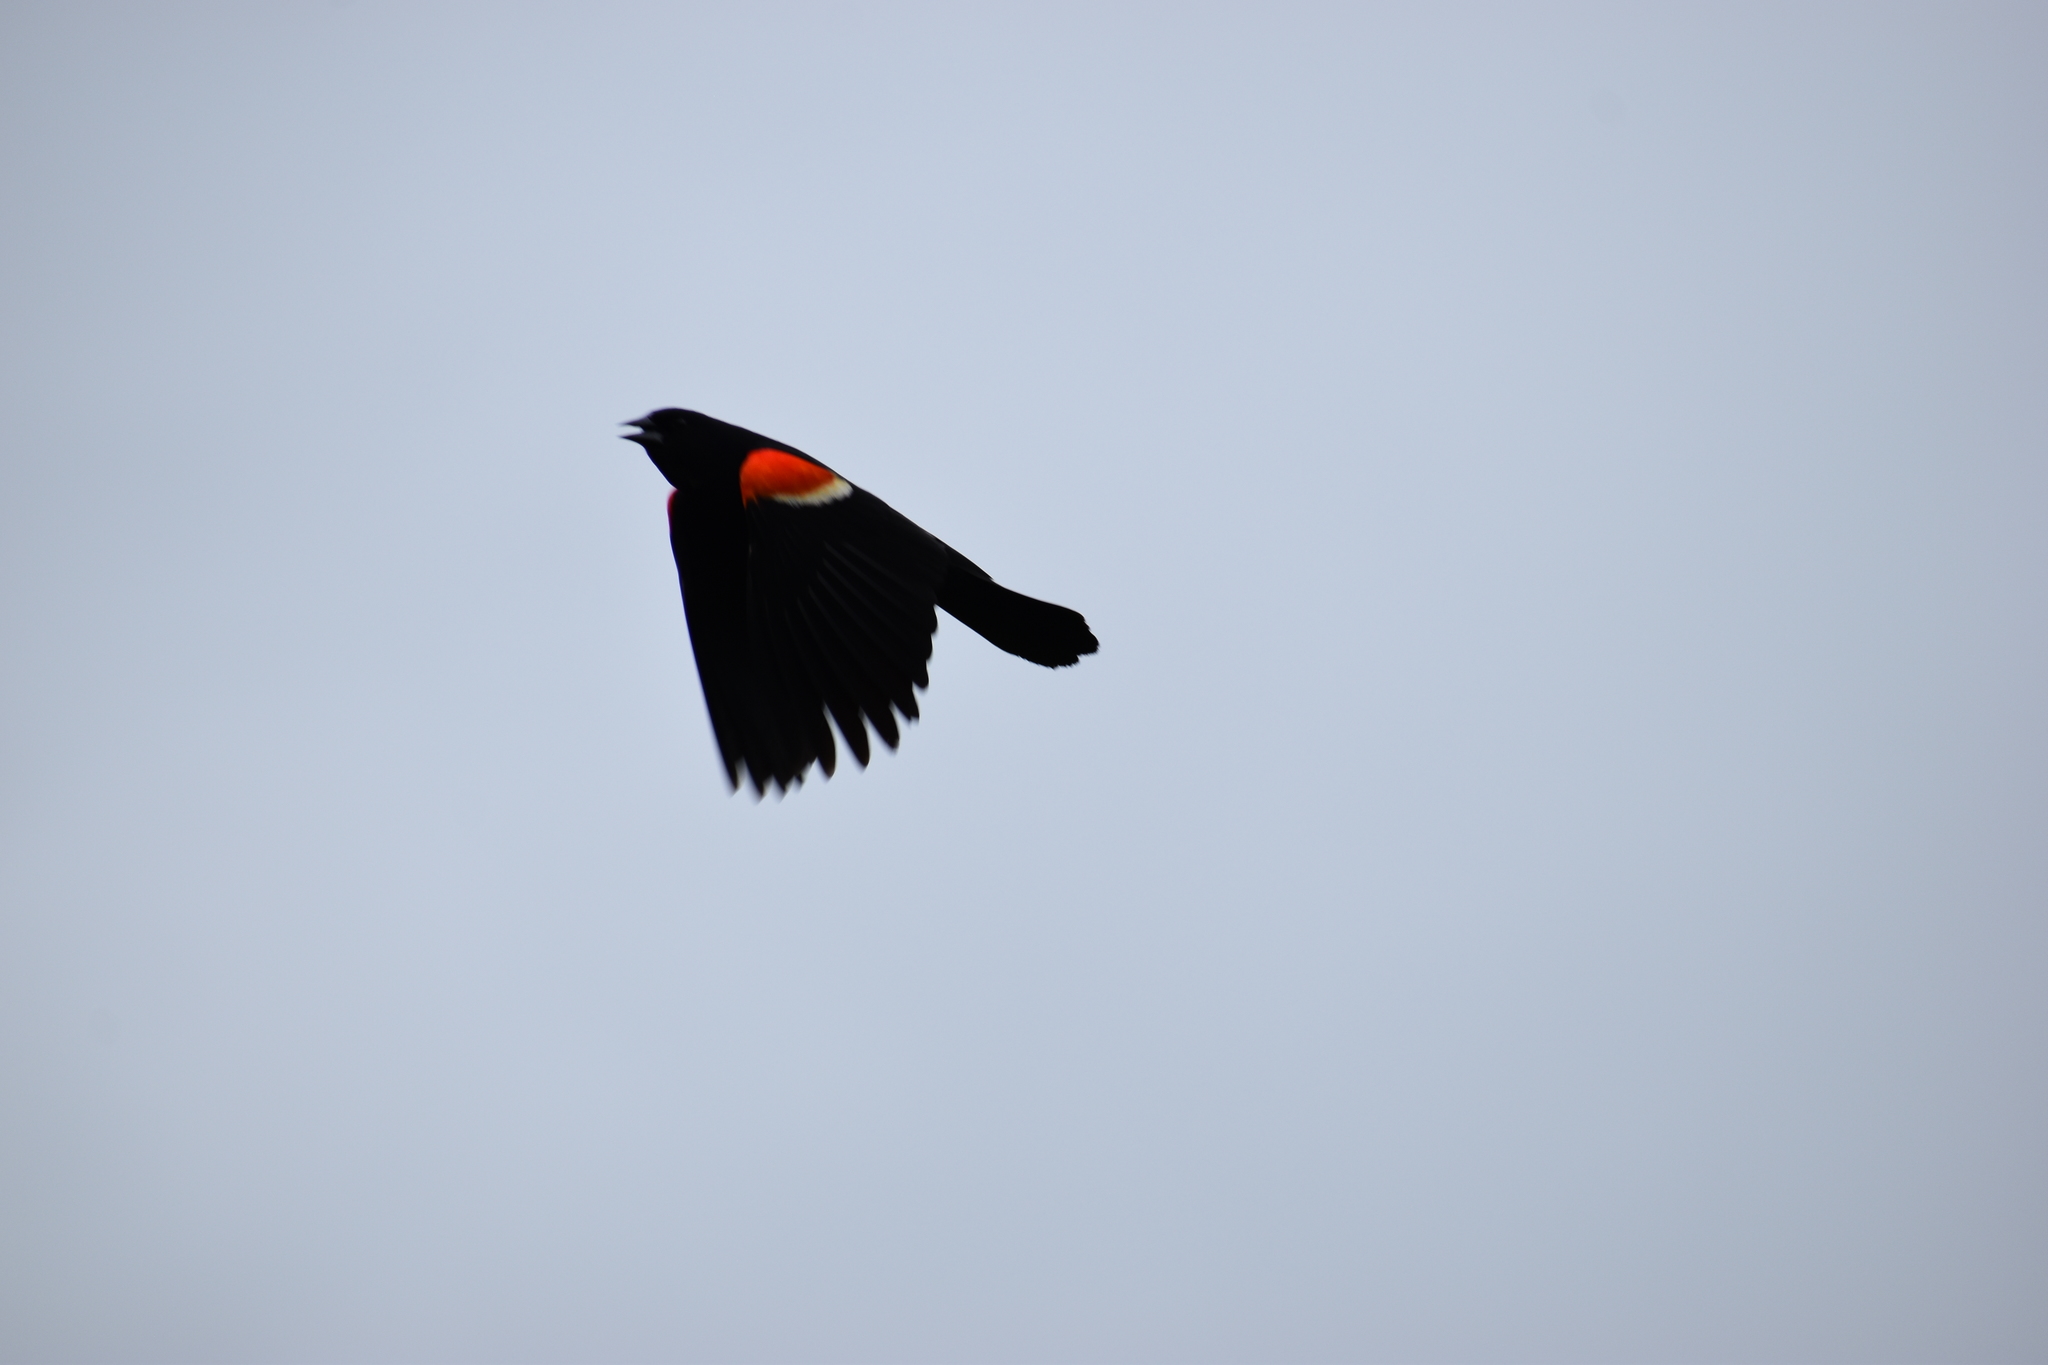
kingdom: Animalia
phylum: Chordata
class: Aves
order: Passeriformes
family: Icteridae
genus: Agelaius
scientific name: Agelaius phoeniceus
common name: Red-winged blackbird
